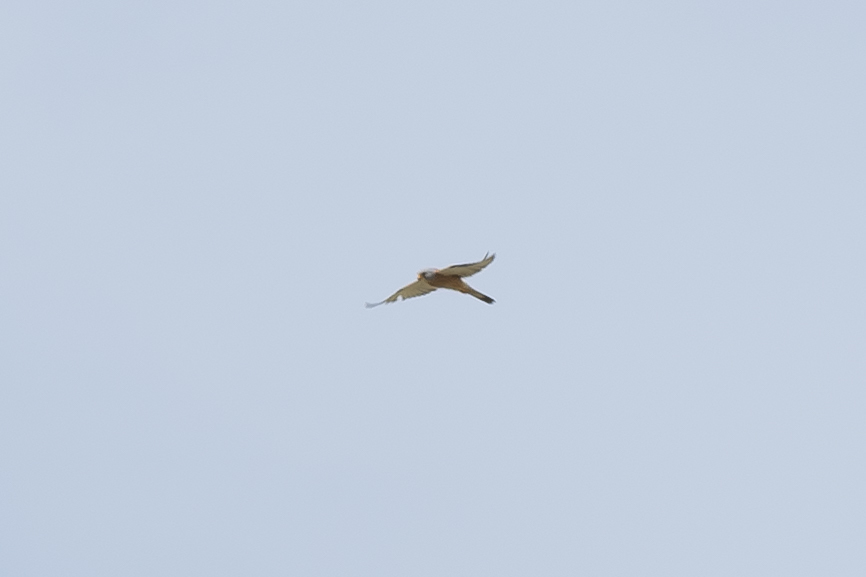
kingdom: Animalia
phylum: Chordata
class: Aves
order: Falconiformes
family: Falconidae
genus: Falco
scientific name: Falco naumanni
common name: Lesser kestrel
